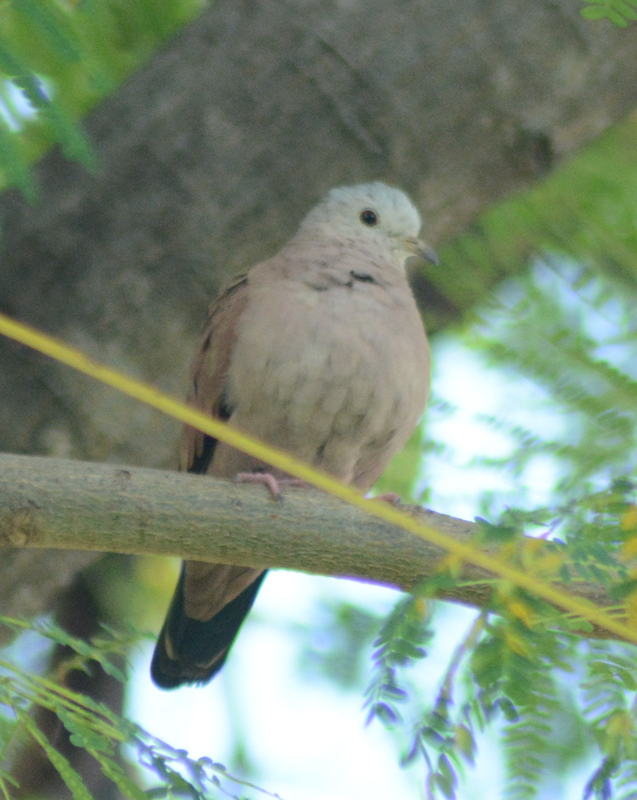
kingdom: Animalia
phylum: Chordata
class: Aves
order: Columbiformes
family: Columbidae
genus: Columbina
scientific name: Columbina talpacoti
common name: Ruddy ground dove
